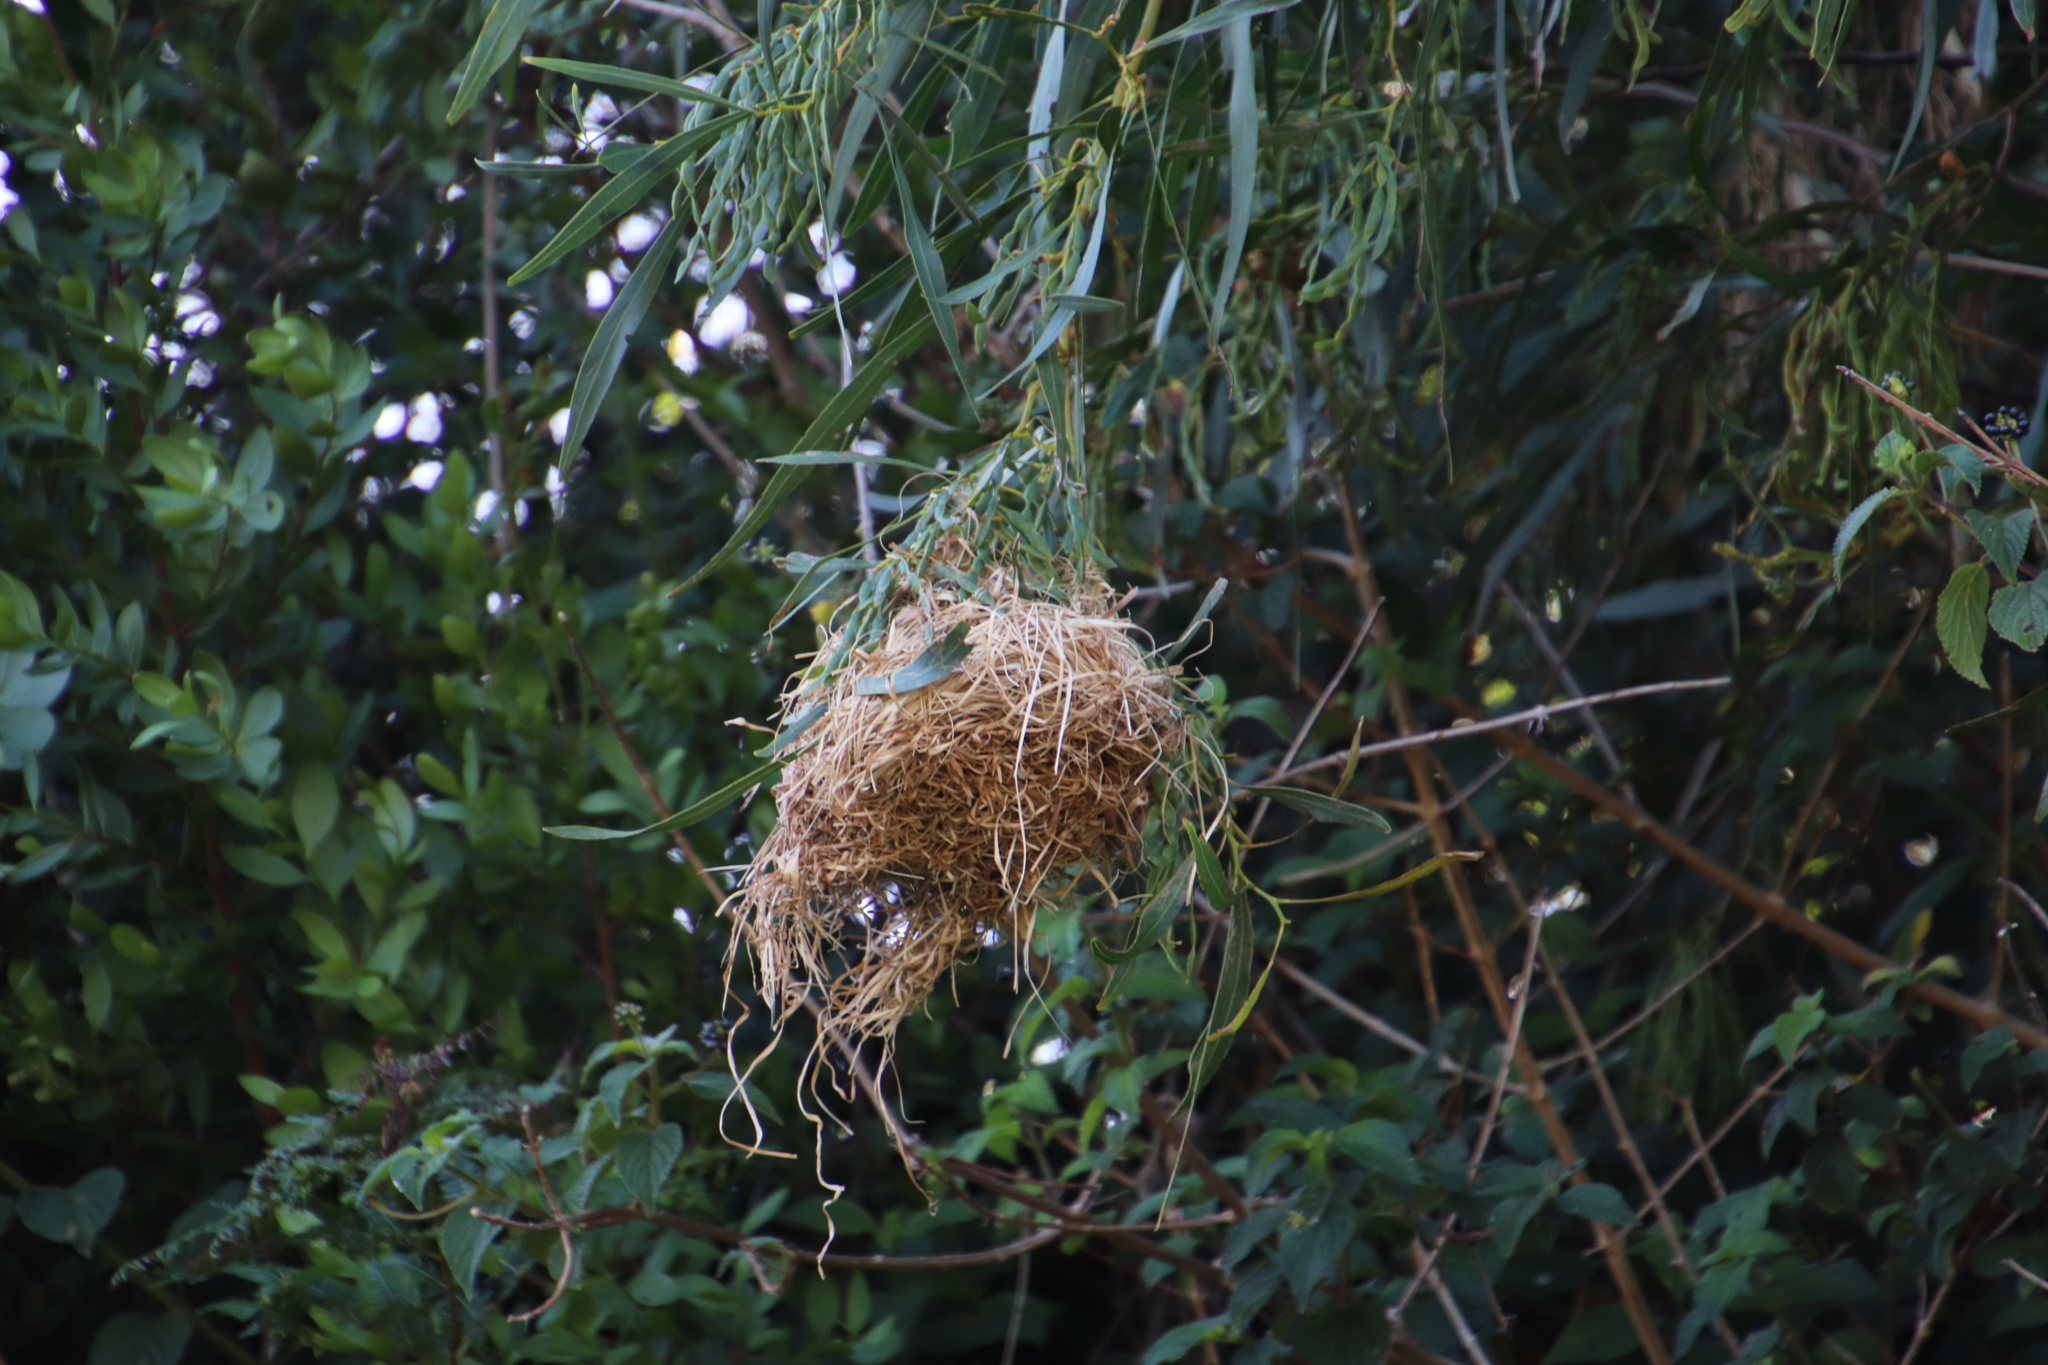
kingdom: Animalia
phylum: Chordata
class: Aves
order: Passeriformes
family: Ploceidae
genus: Ploceus
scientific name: Ploceus capensis
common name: Cape weaver
